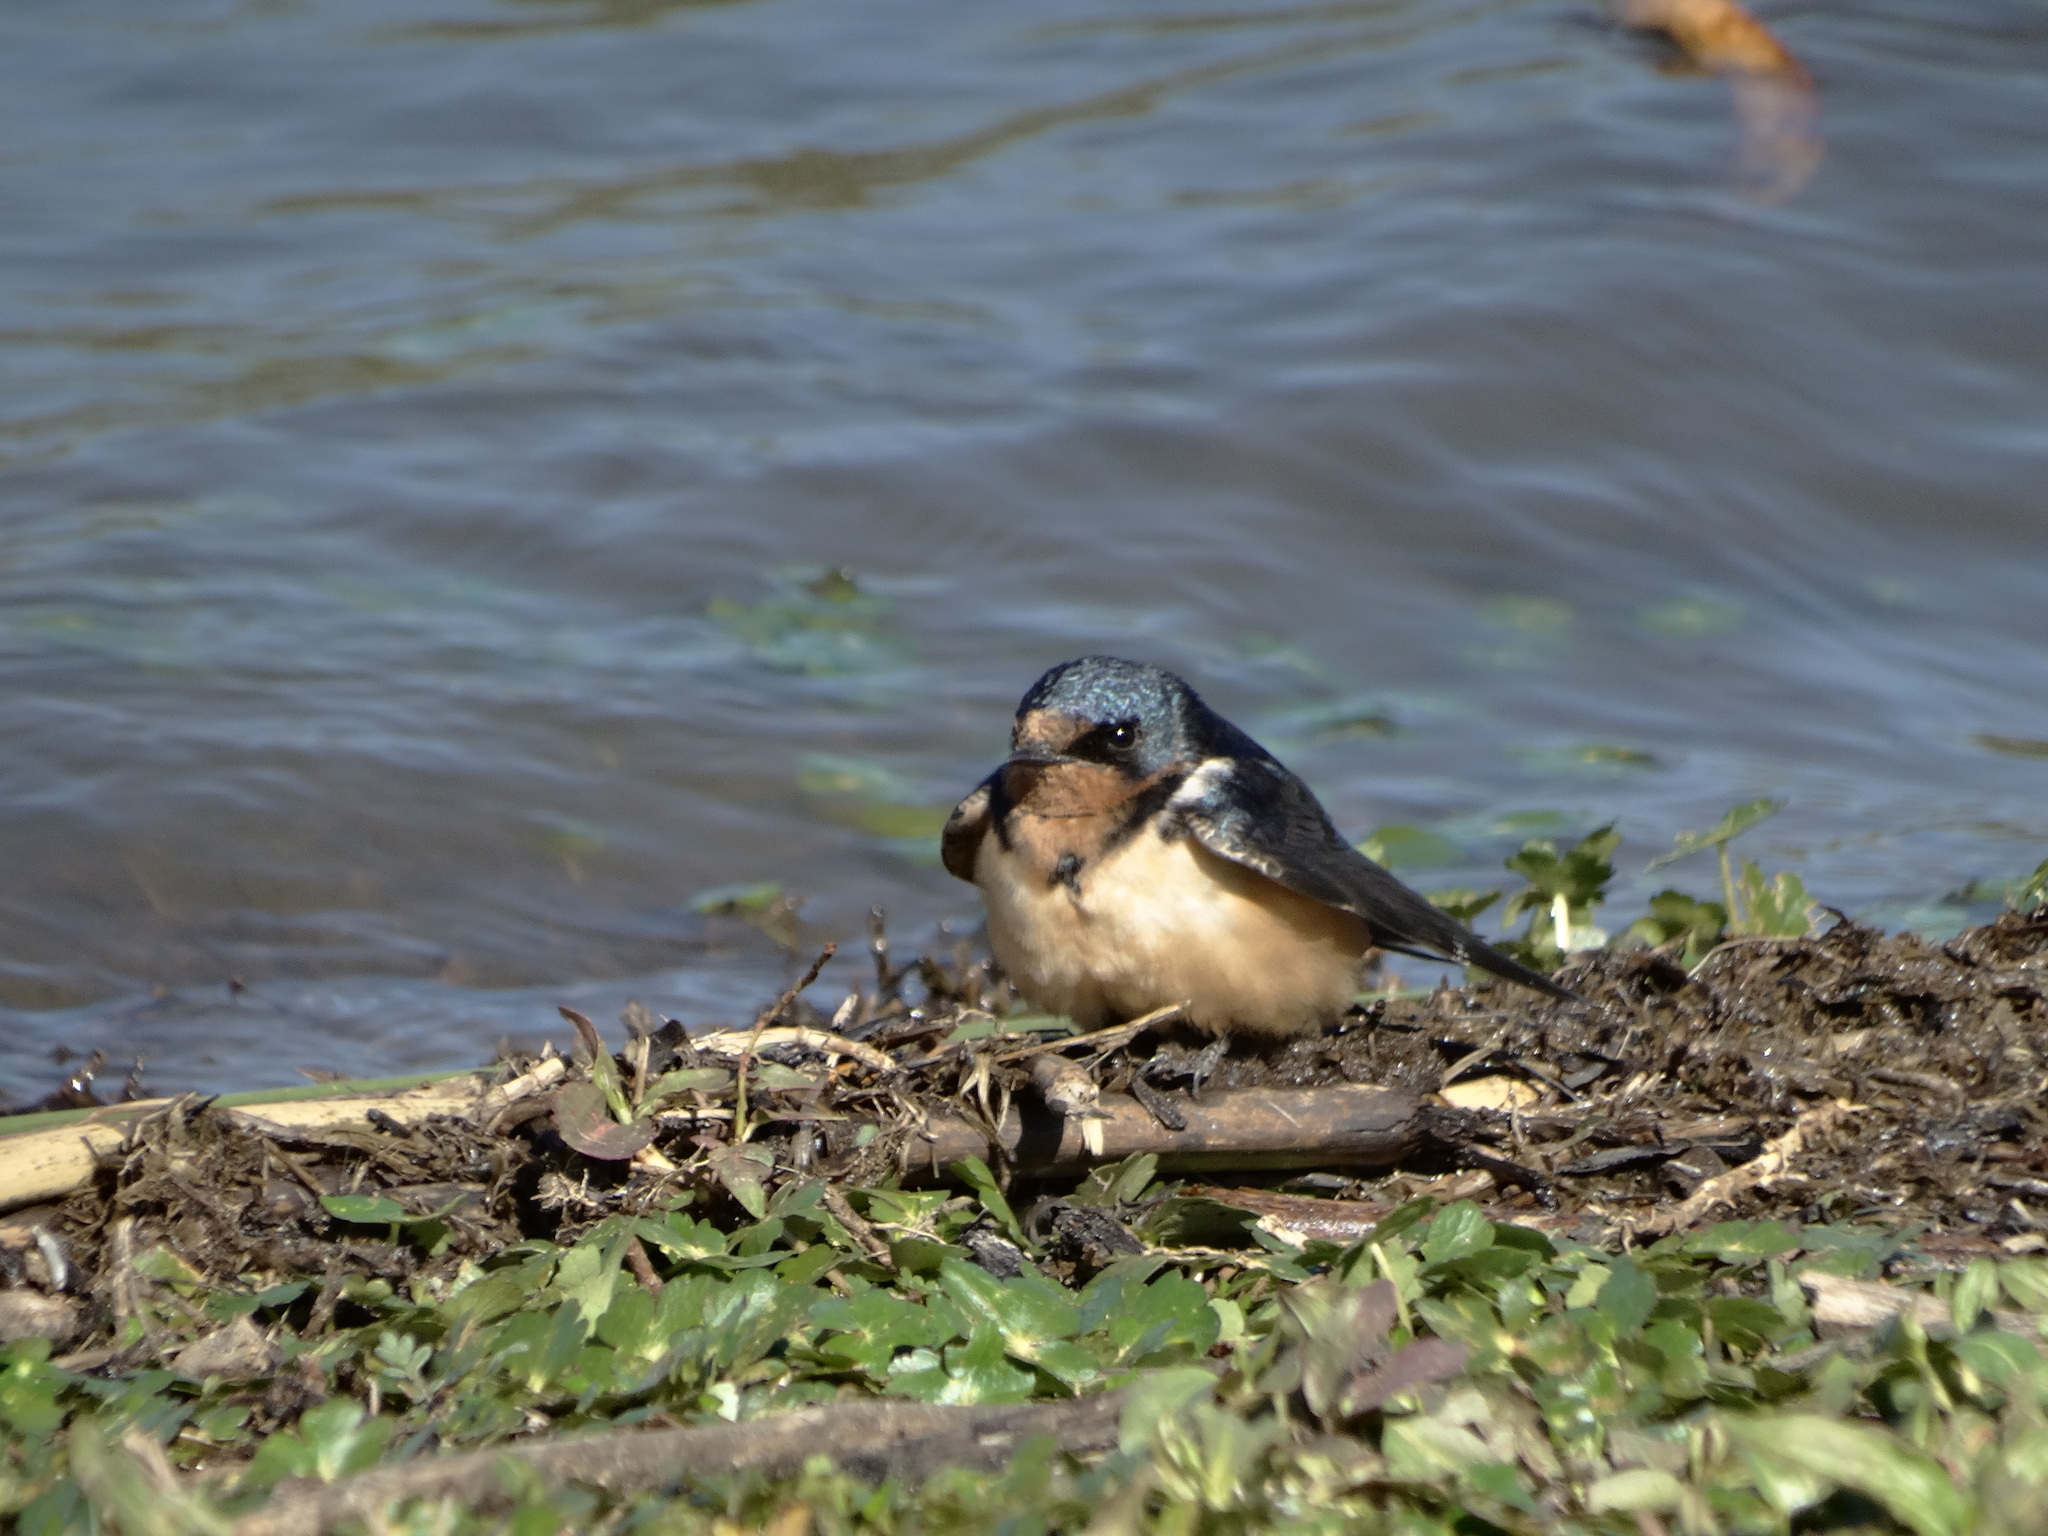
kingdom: Animalia
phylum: Chordata
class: Aves
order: Passeriformes
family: Hirundinidae
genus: Hirundo
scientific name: Hirundo rustica
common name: Barn swallow
